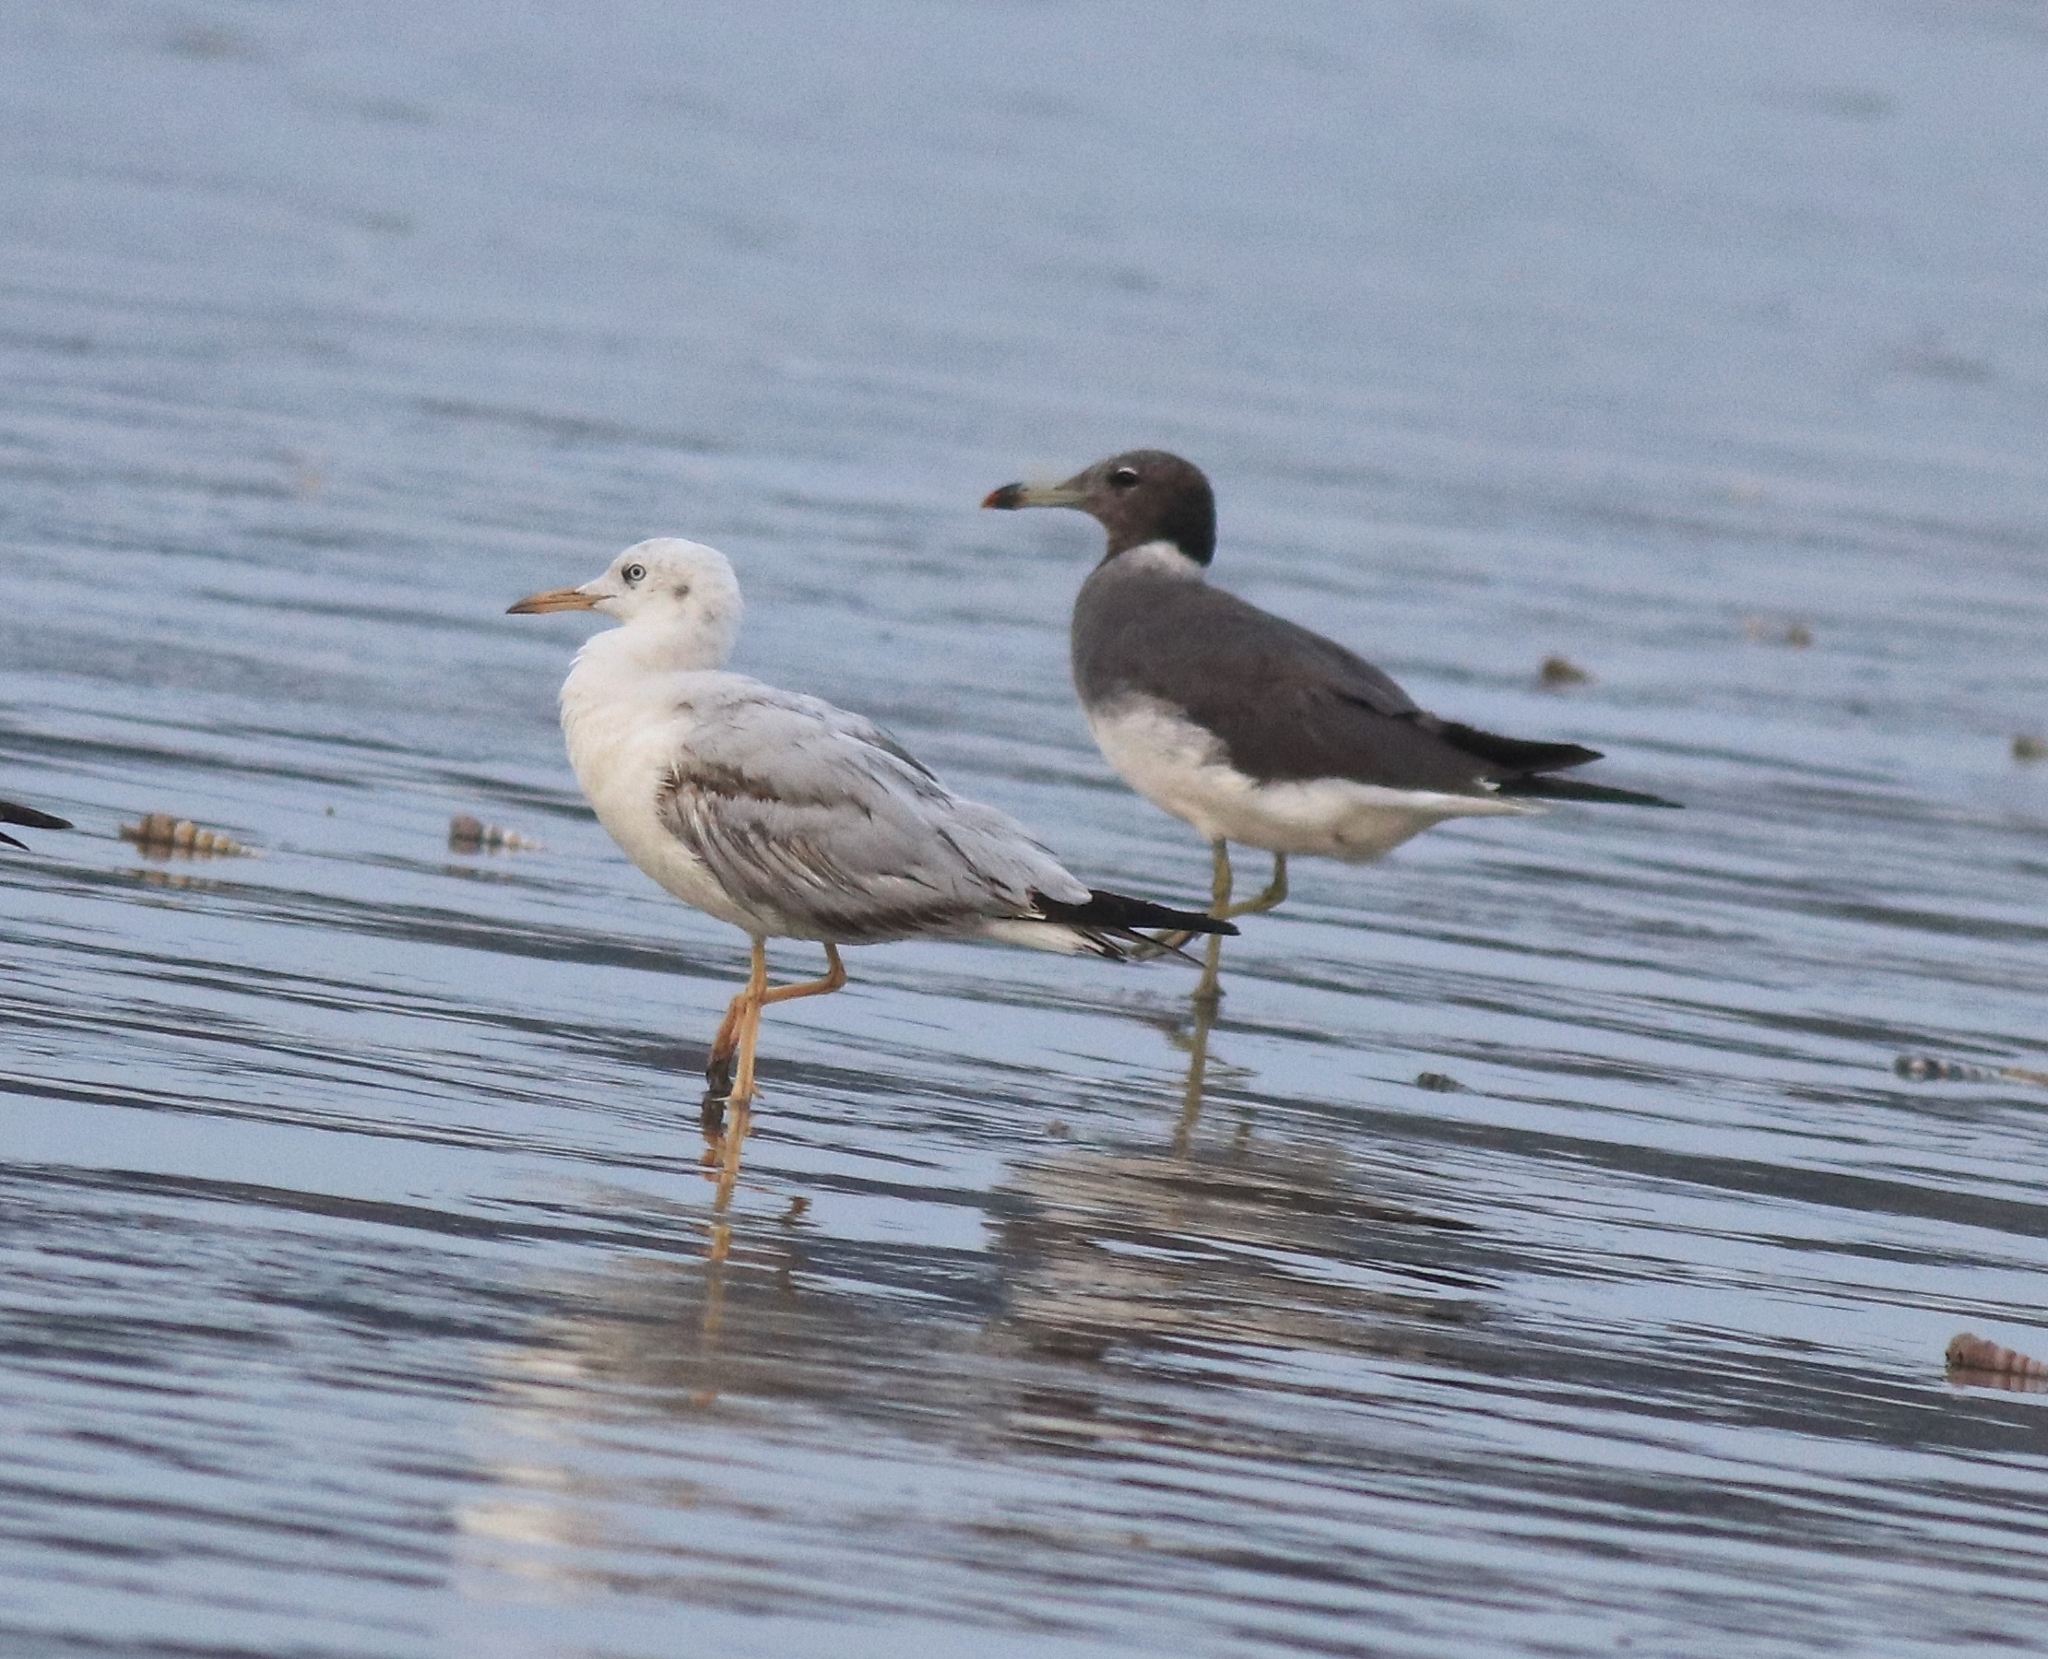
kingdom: Animalia
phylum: Chordata
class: Aves
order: Charadriiformes
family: Laridae
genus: Chroicocephalus
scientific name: Chroicocephalus genei
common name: Slender-billed gull
